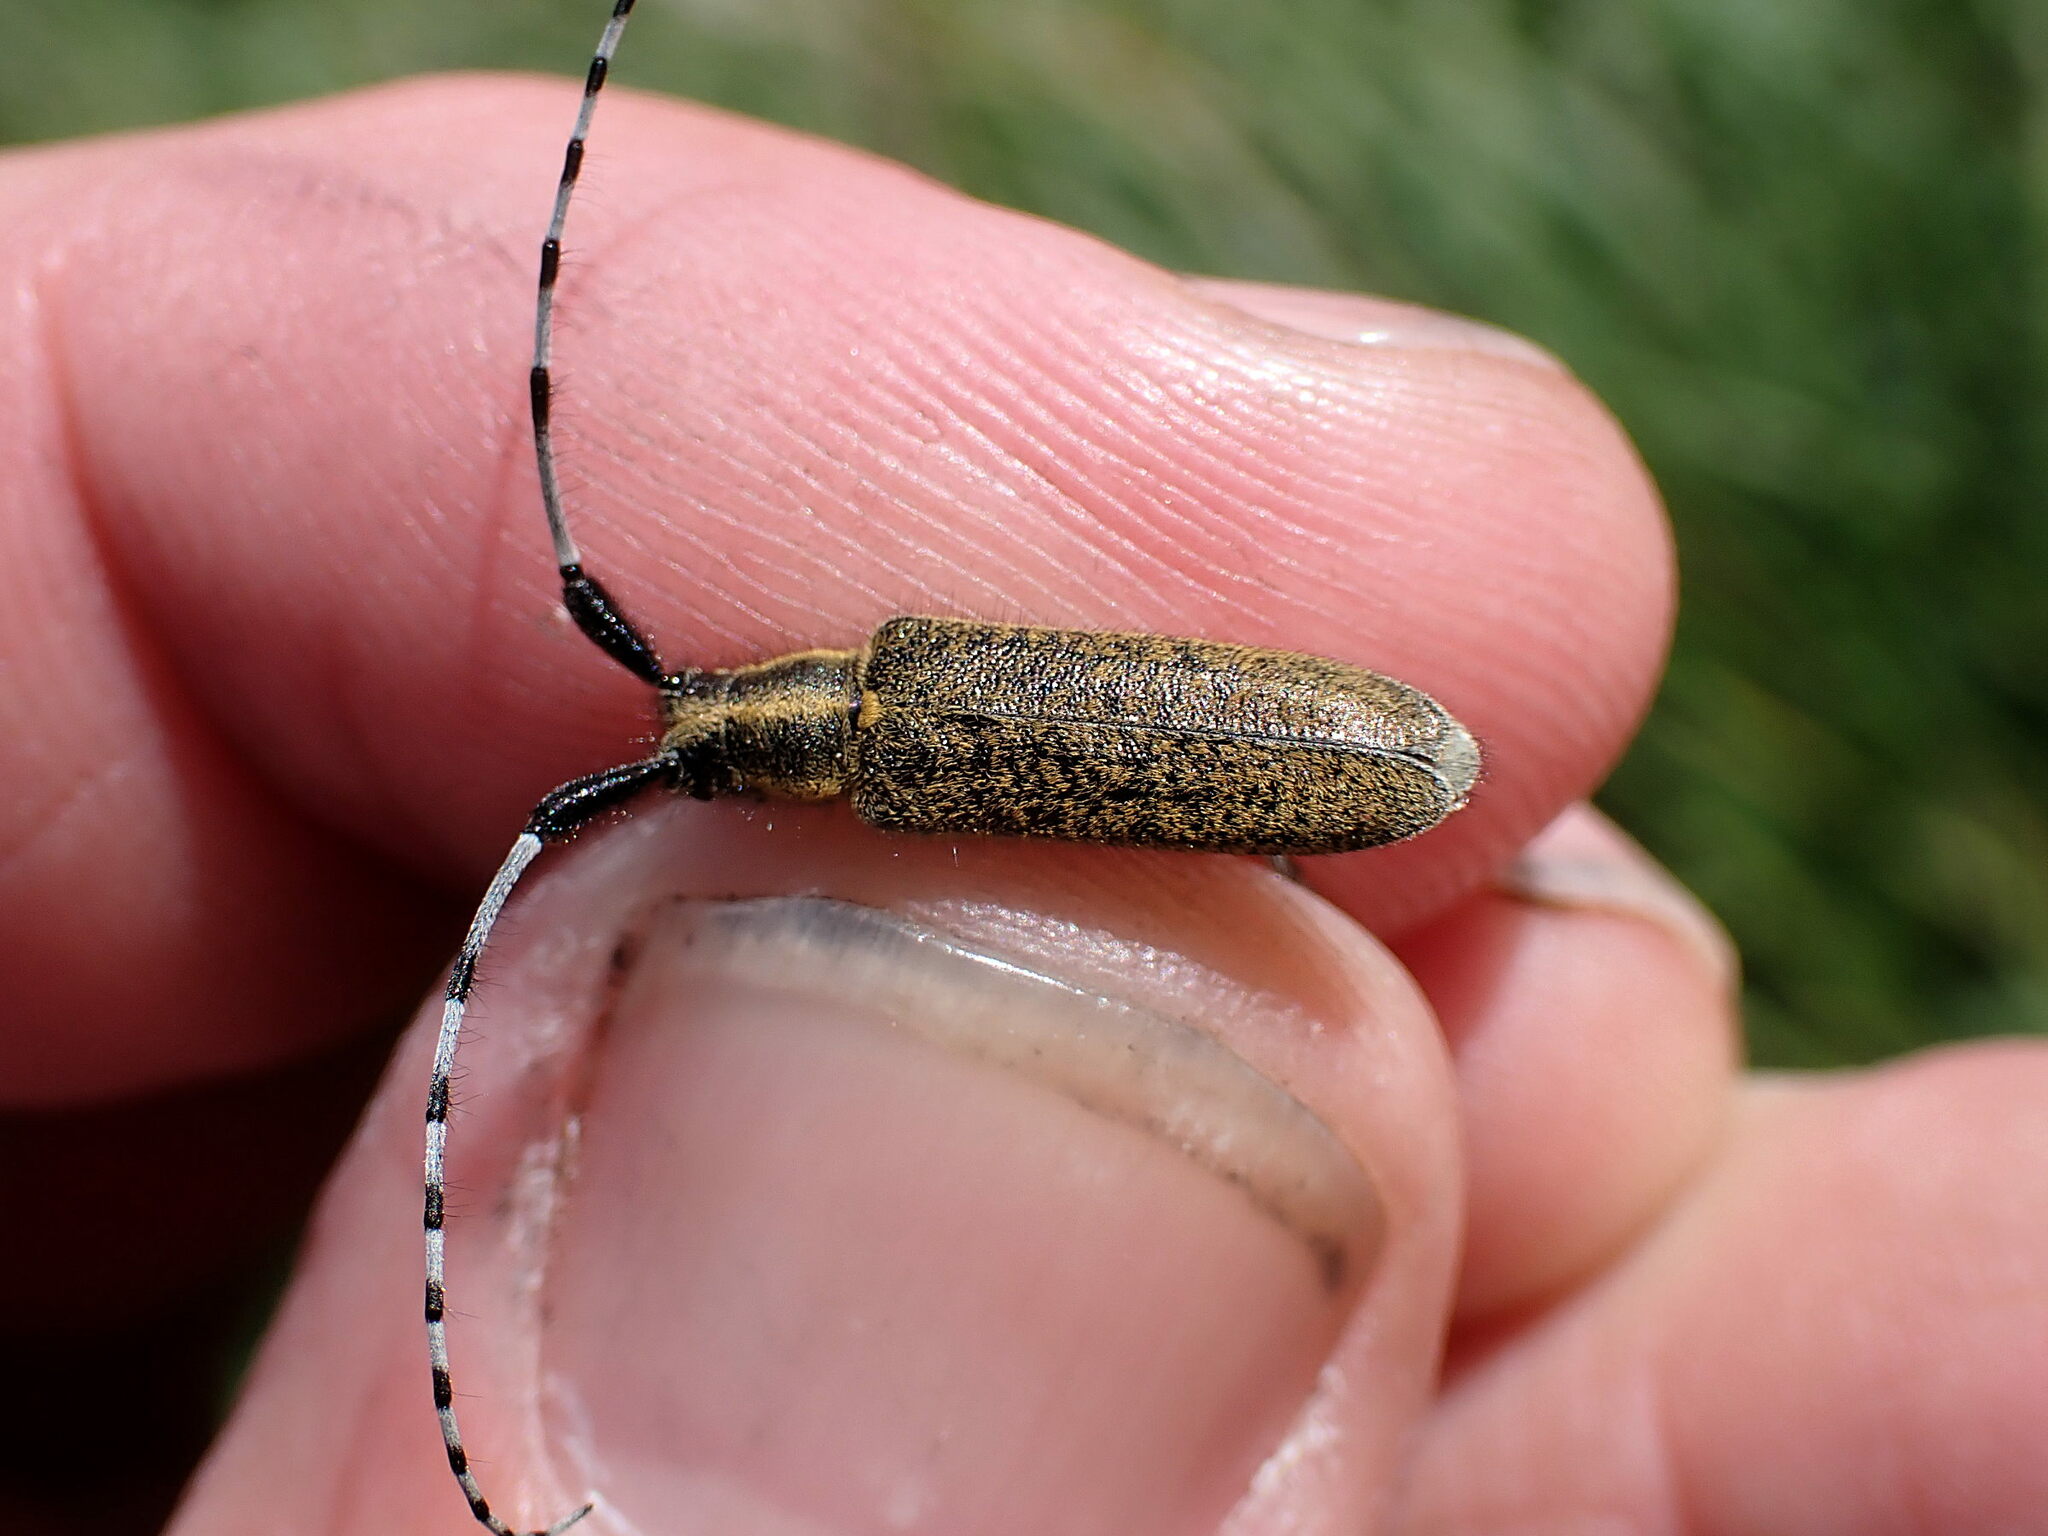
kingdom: Animalia
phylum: Arthropoda
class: Insecta
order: Coleoptera
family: Cerambycidae
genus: Agapanthia
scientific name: Agapanthia villosoviridescens
